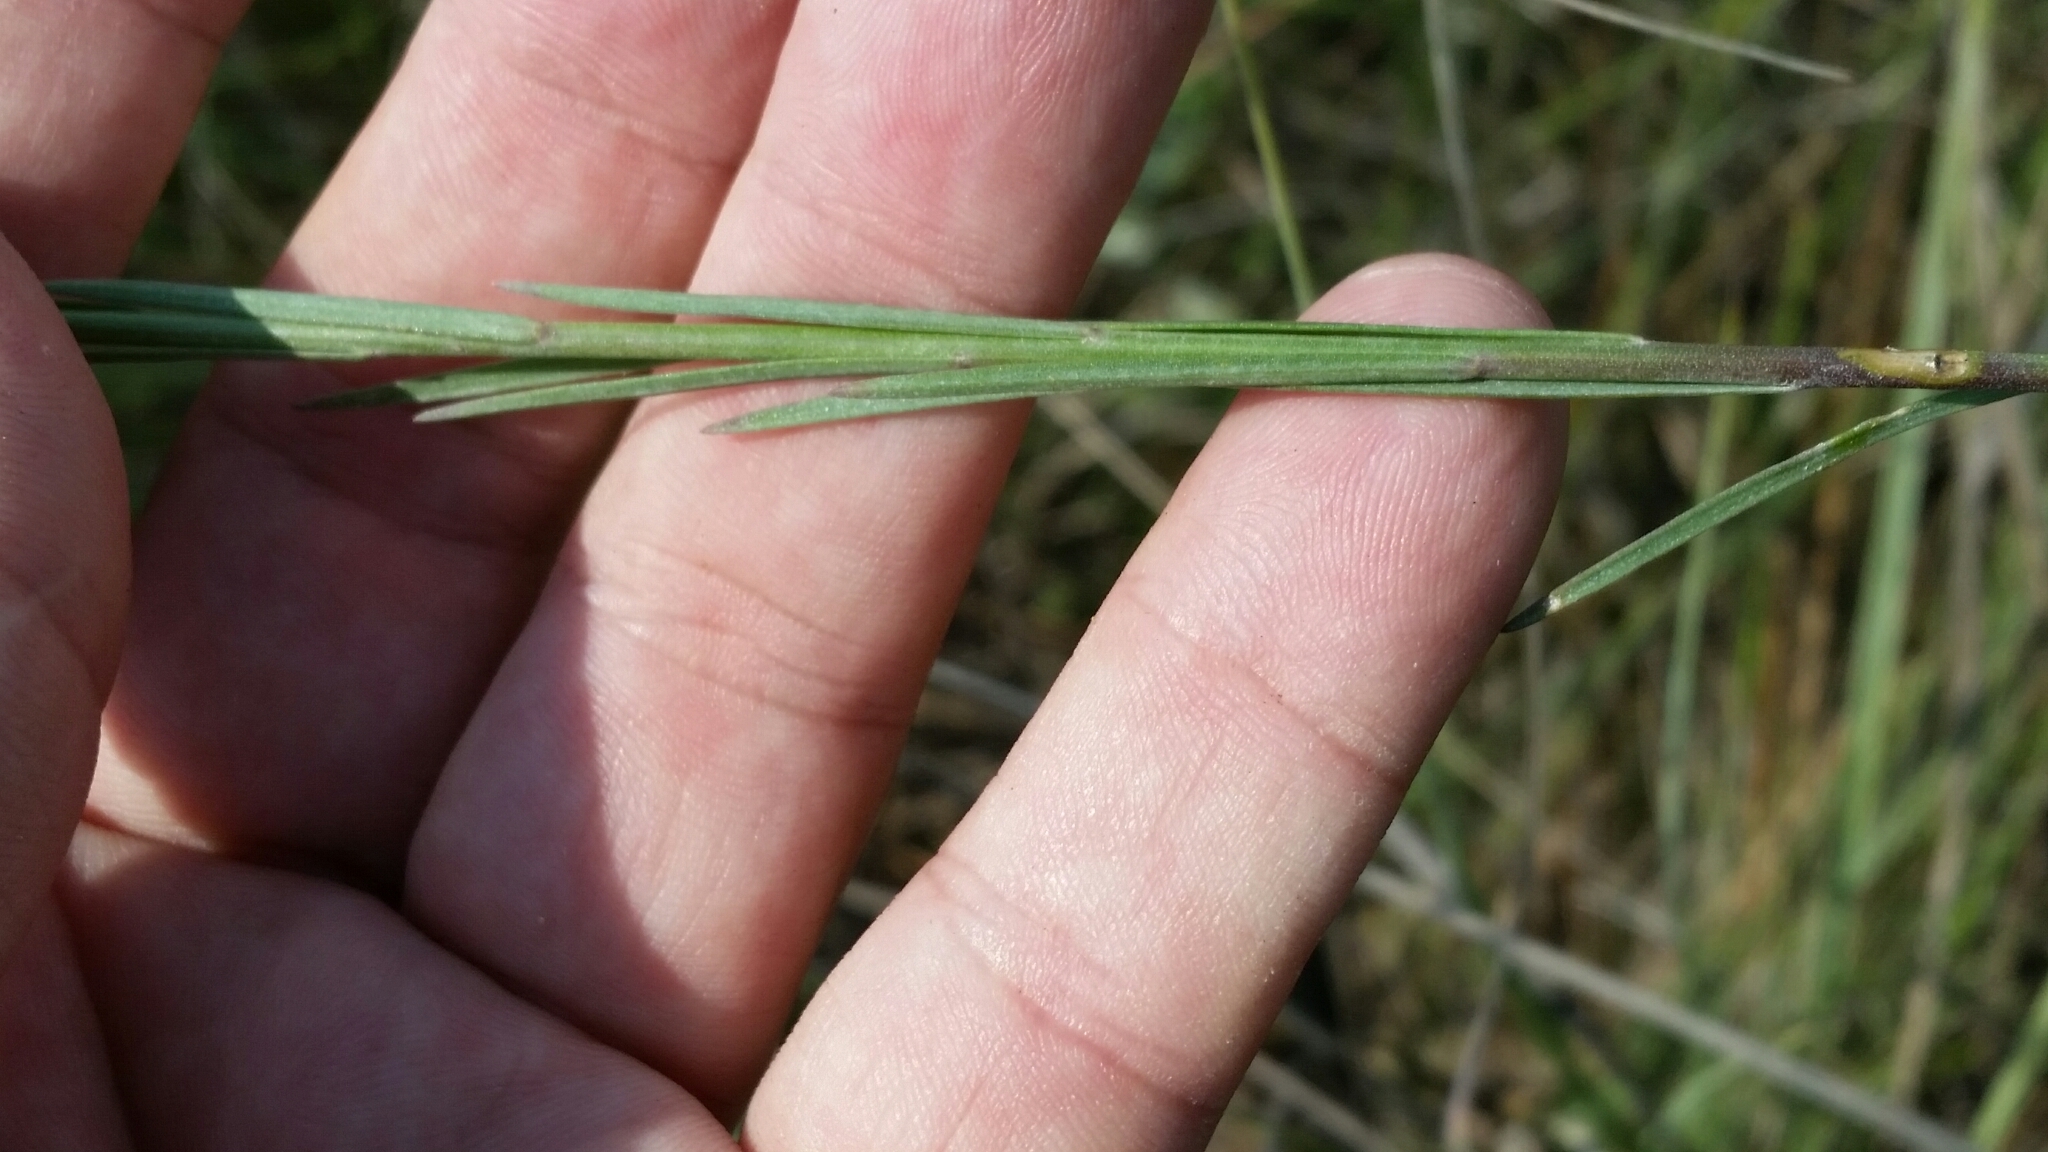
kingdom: Plantae
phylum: Tracheophyta
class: Magnoliopsida
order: Malpighiales
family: Linaceae
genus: Linum
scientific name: Linum smallii
